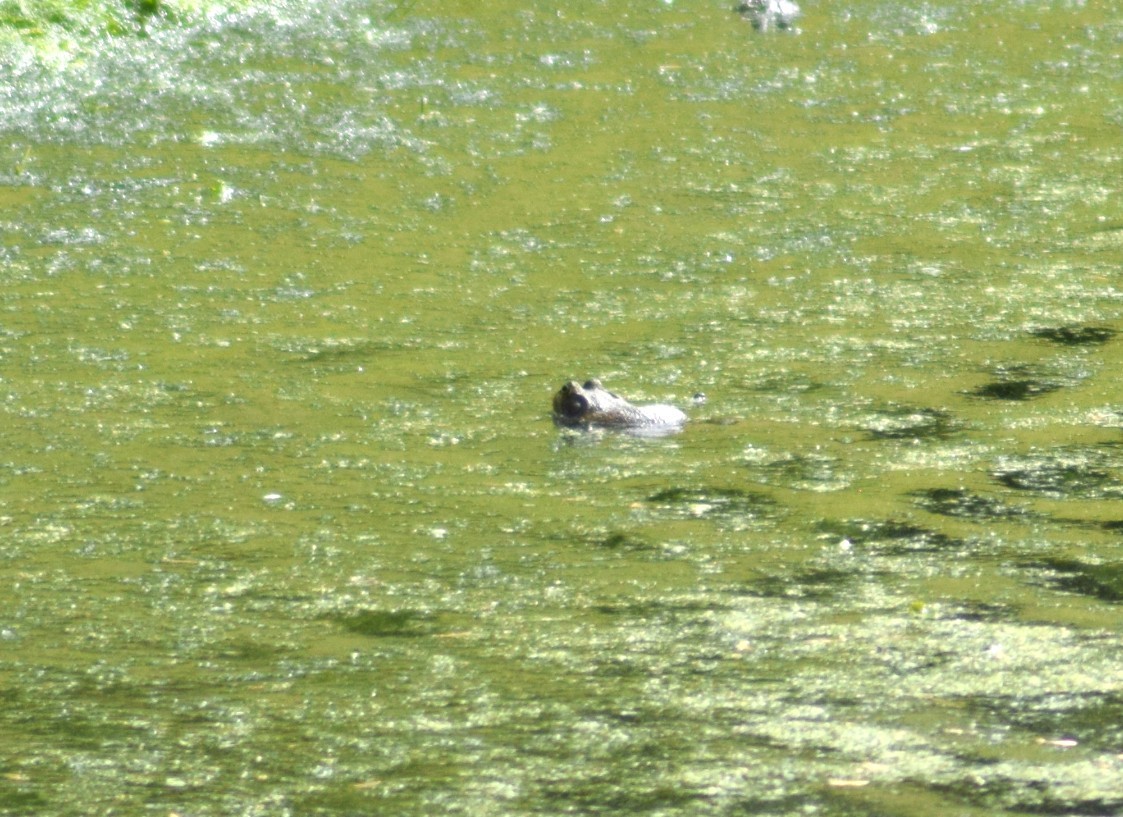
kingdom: Animalia
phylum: Chordata
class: Amphibia
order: Anura
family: Ranidae
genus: Lithobates
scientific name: Lithobates catesbeianus
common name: American bullfrog
